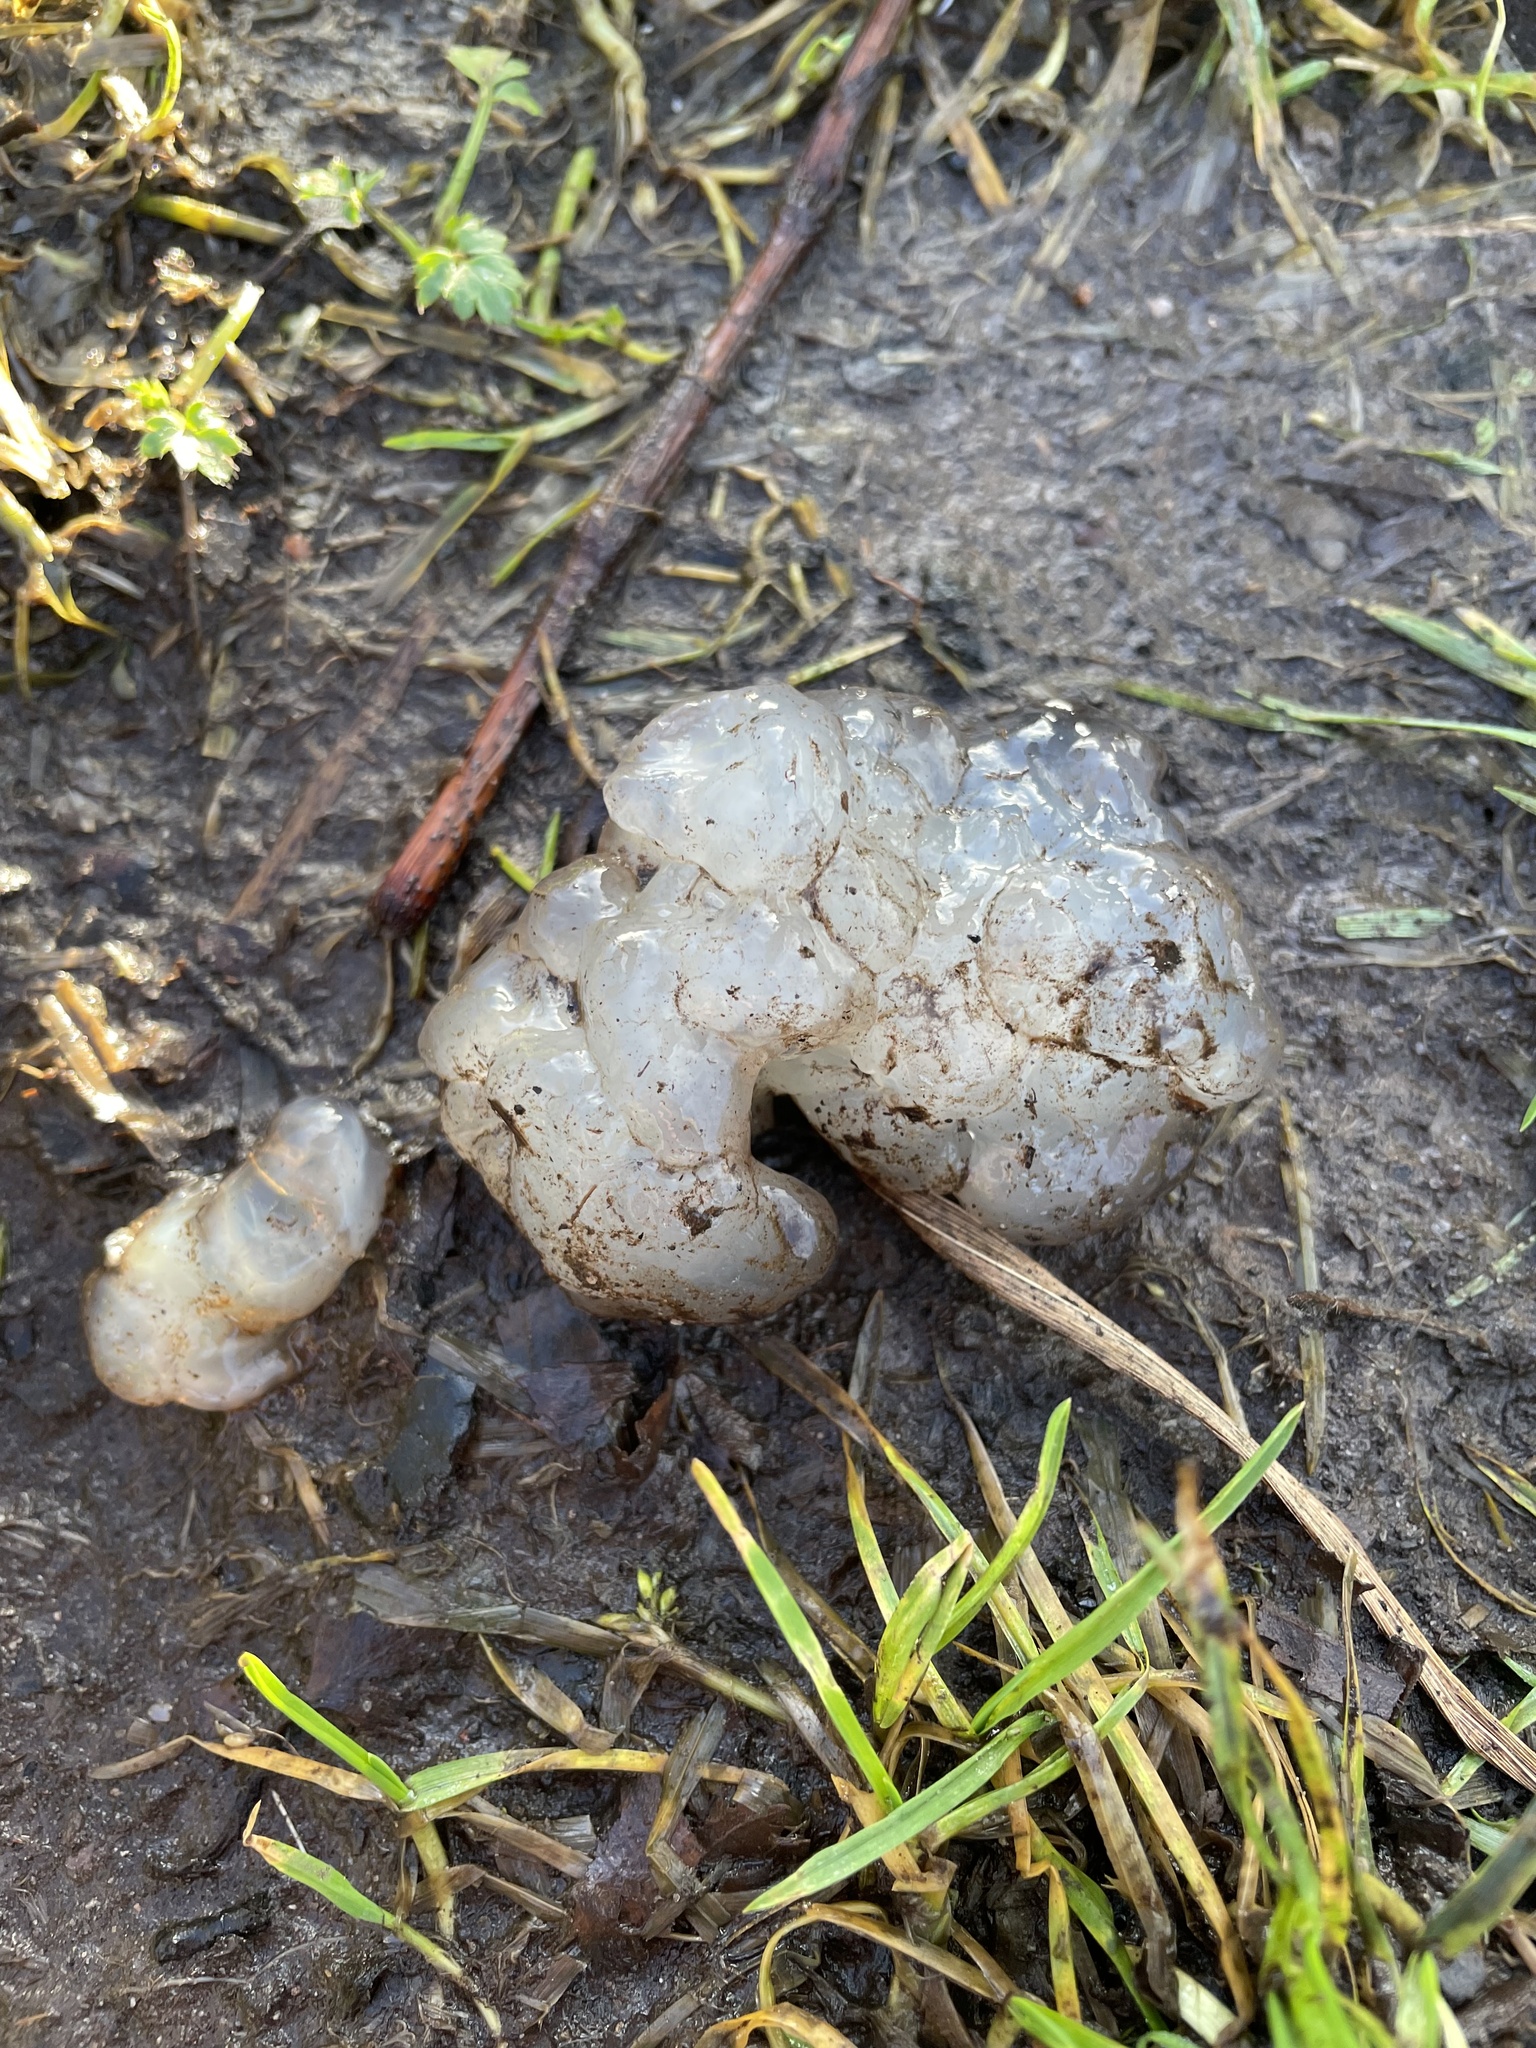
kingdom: Fungi
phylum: Basidiomycota
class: Agaricomycetes
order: Auriculariales
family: Hyaloriaceae
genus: Myxarium
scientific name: Myxarium nucleatum
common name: Crystal brain fungus
